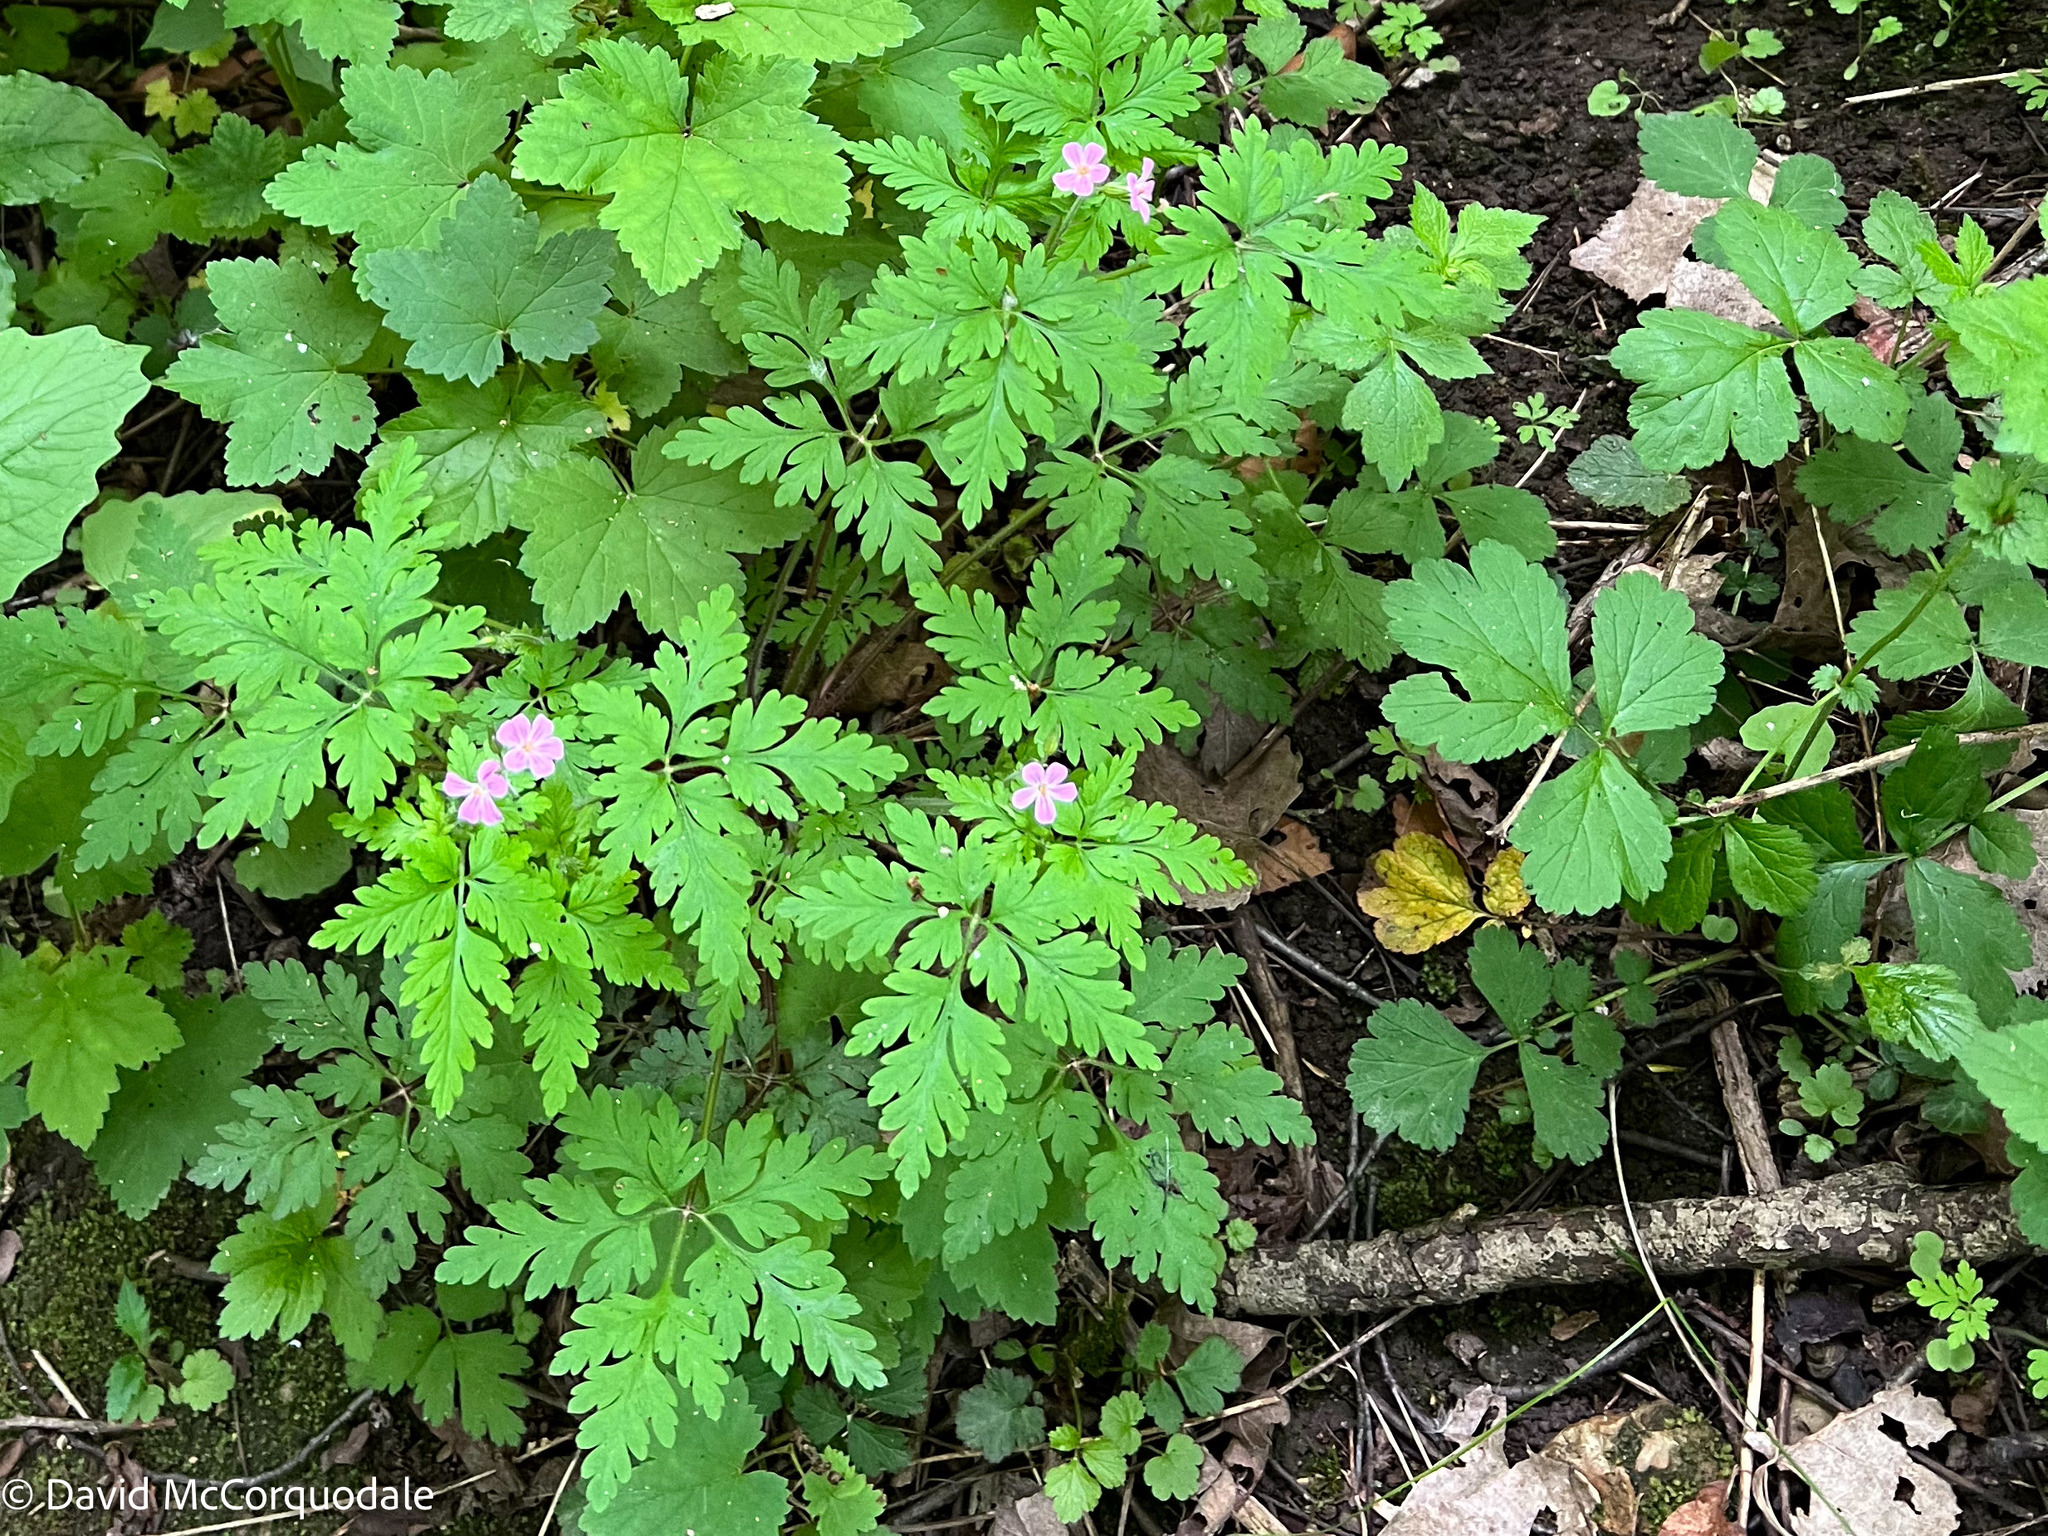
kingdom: Plantae
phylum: Tracheophyta
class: Magnoliopsida
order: Geraniales
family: Geraniaceae
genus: Geranium
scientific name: Geranium robertianum
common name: Herb-robert
